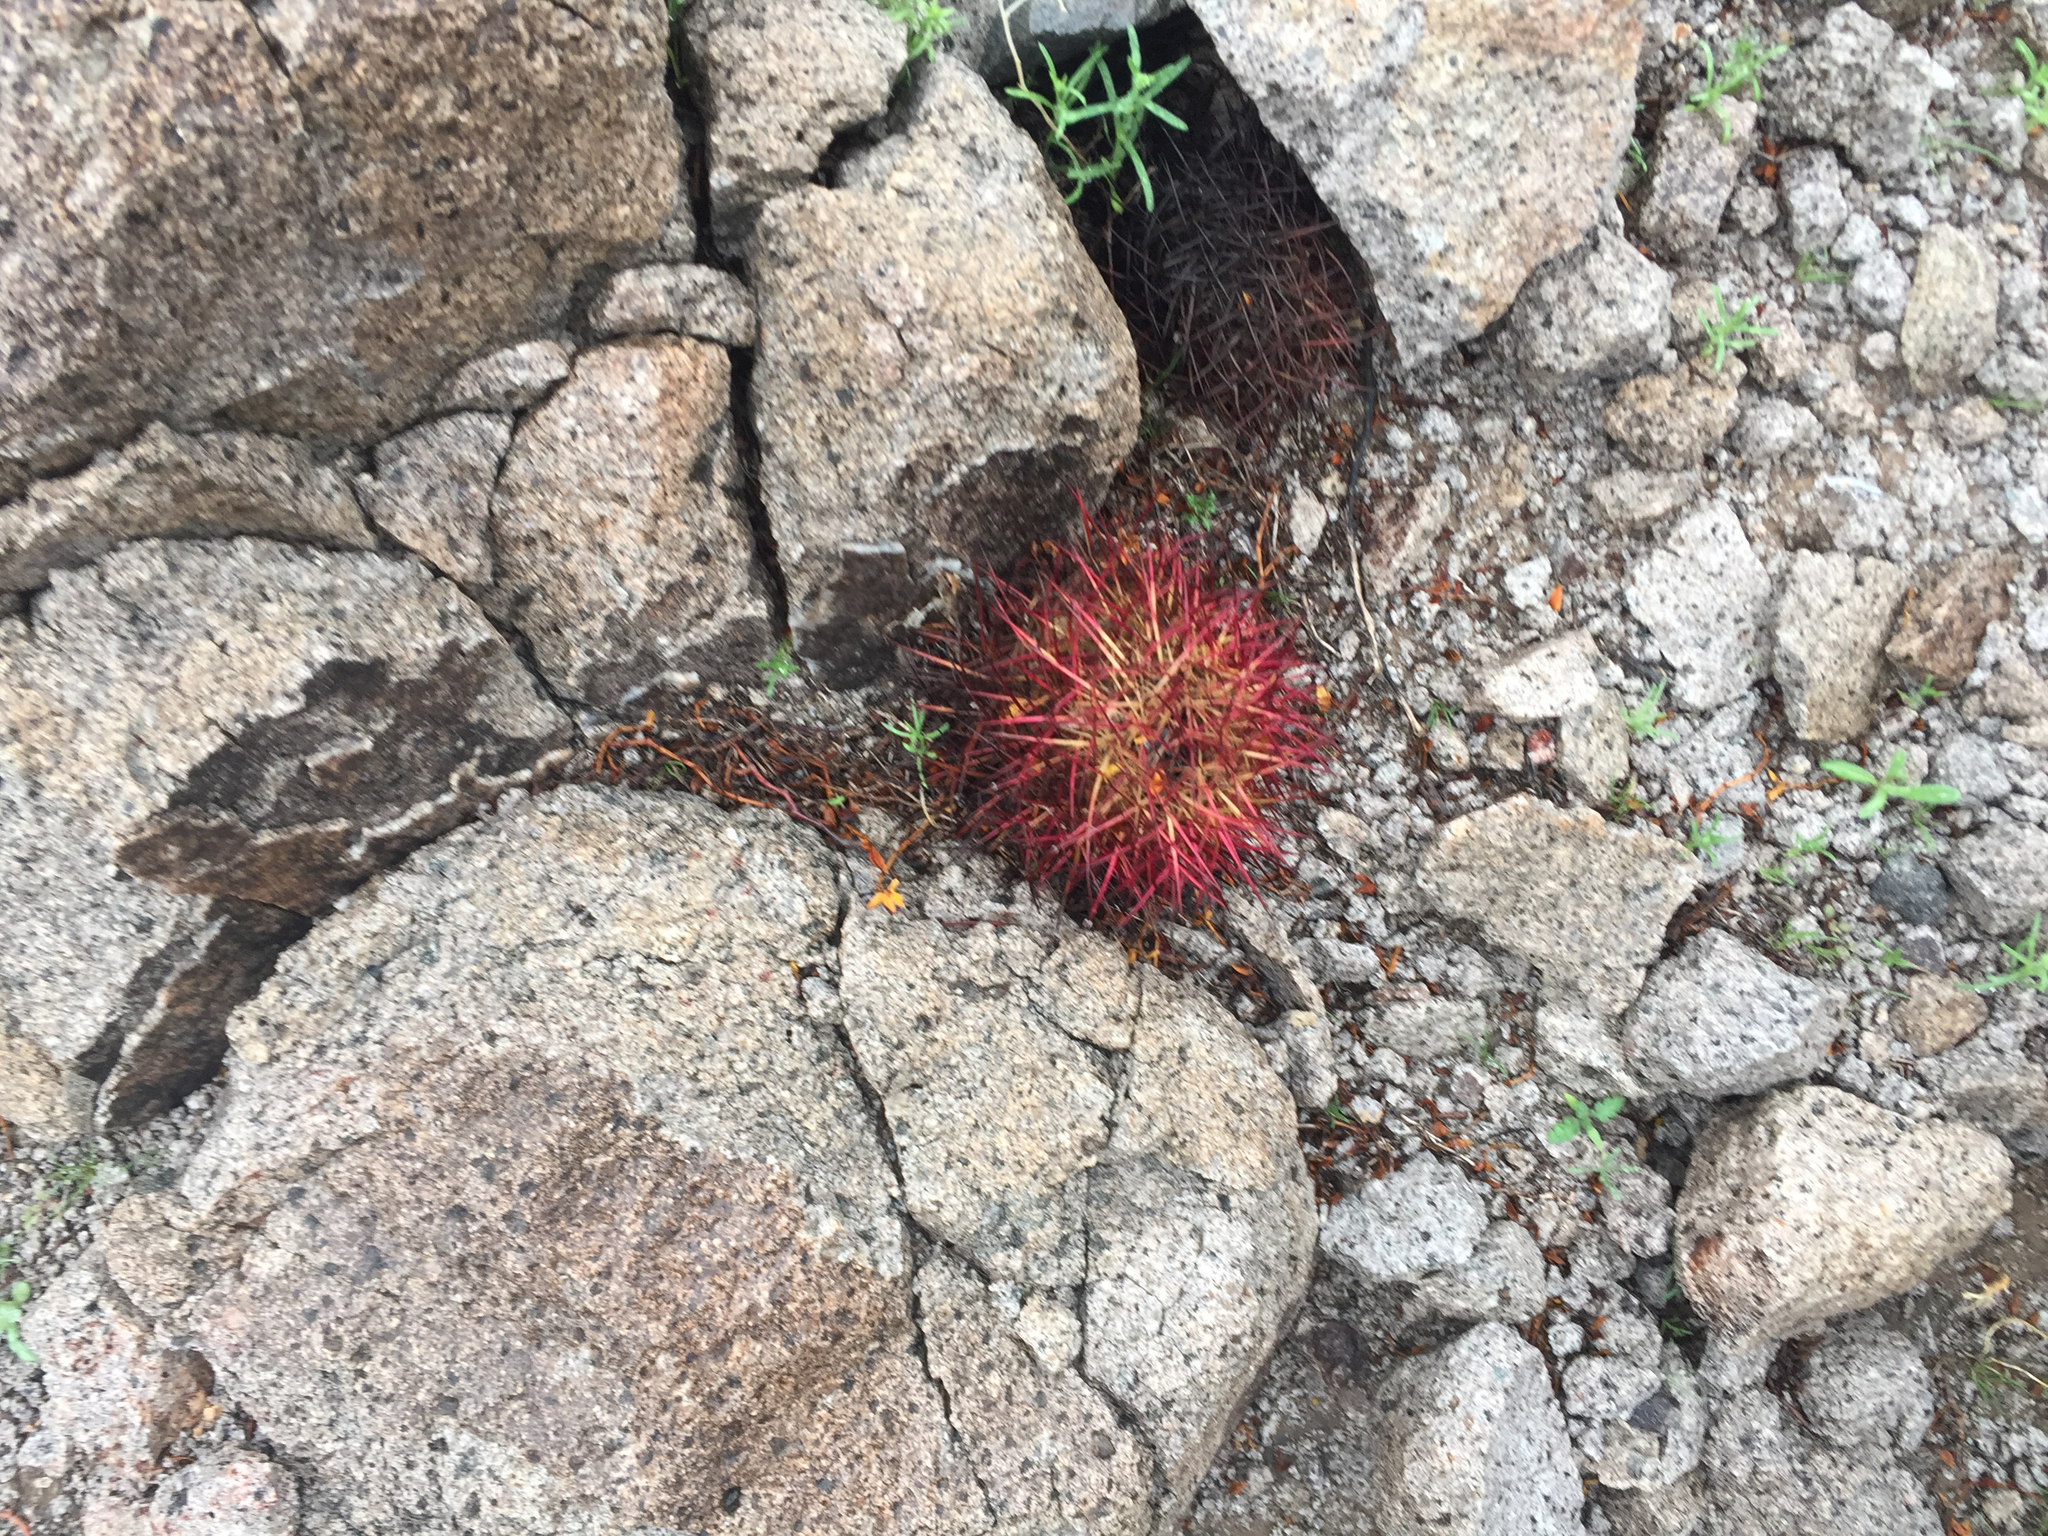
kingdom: Plantae
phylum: Tracheophyta
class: Magnoliopsida
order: Caryophyllales
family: Cactaceae
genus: Sclerocactus
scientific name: Sclerocactus johnsonii
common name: Eight-spine fishhook cactus
